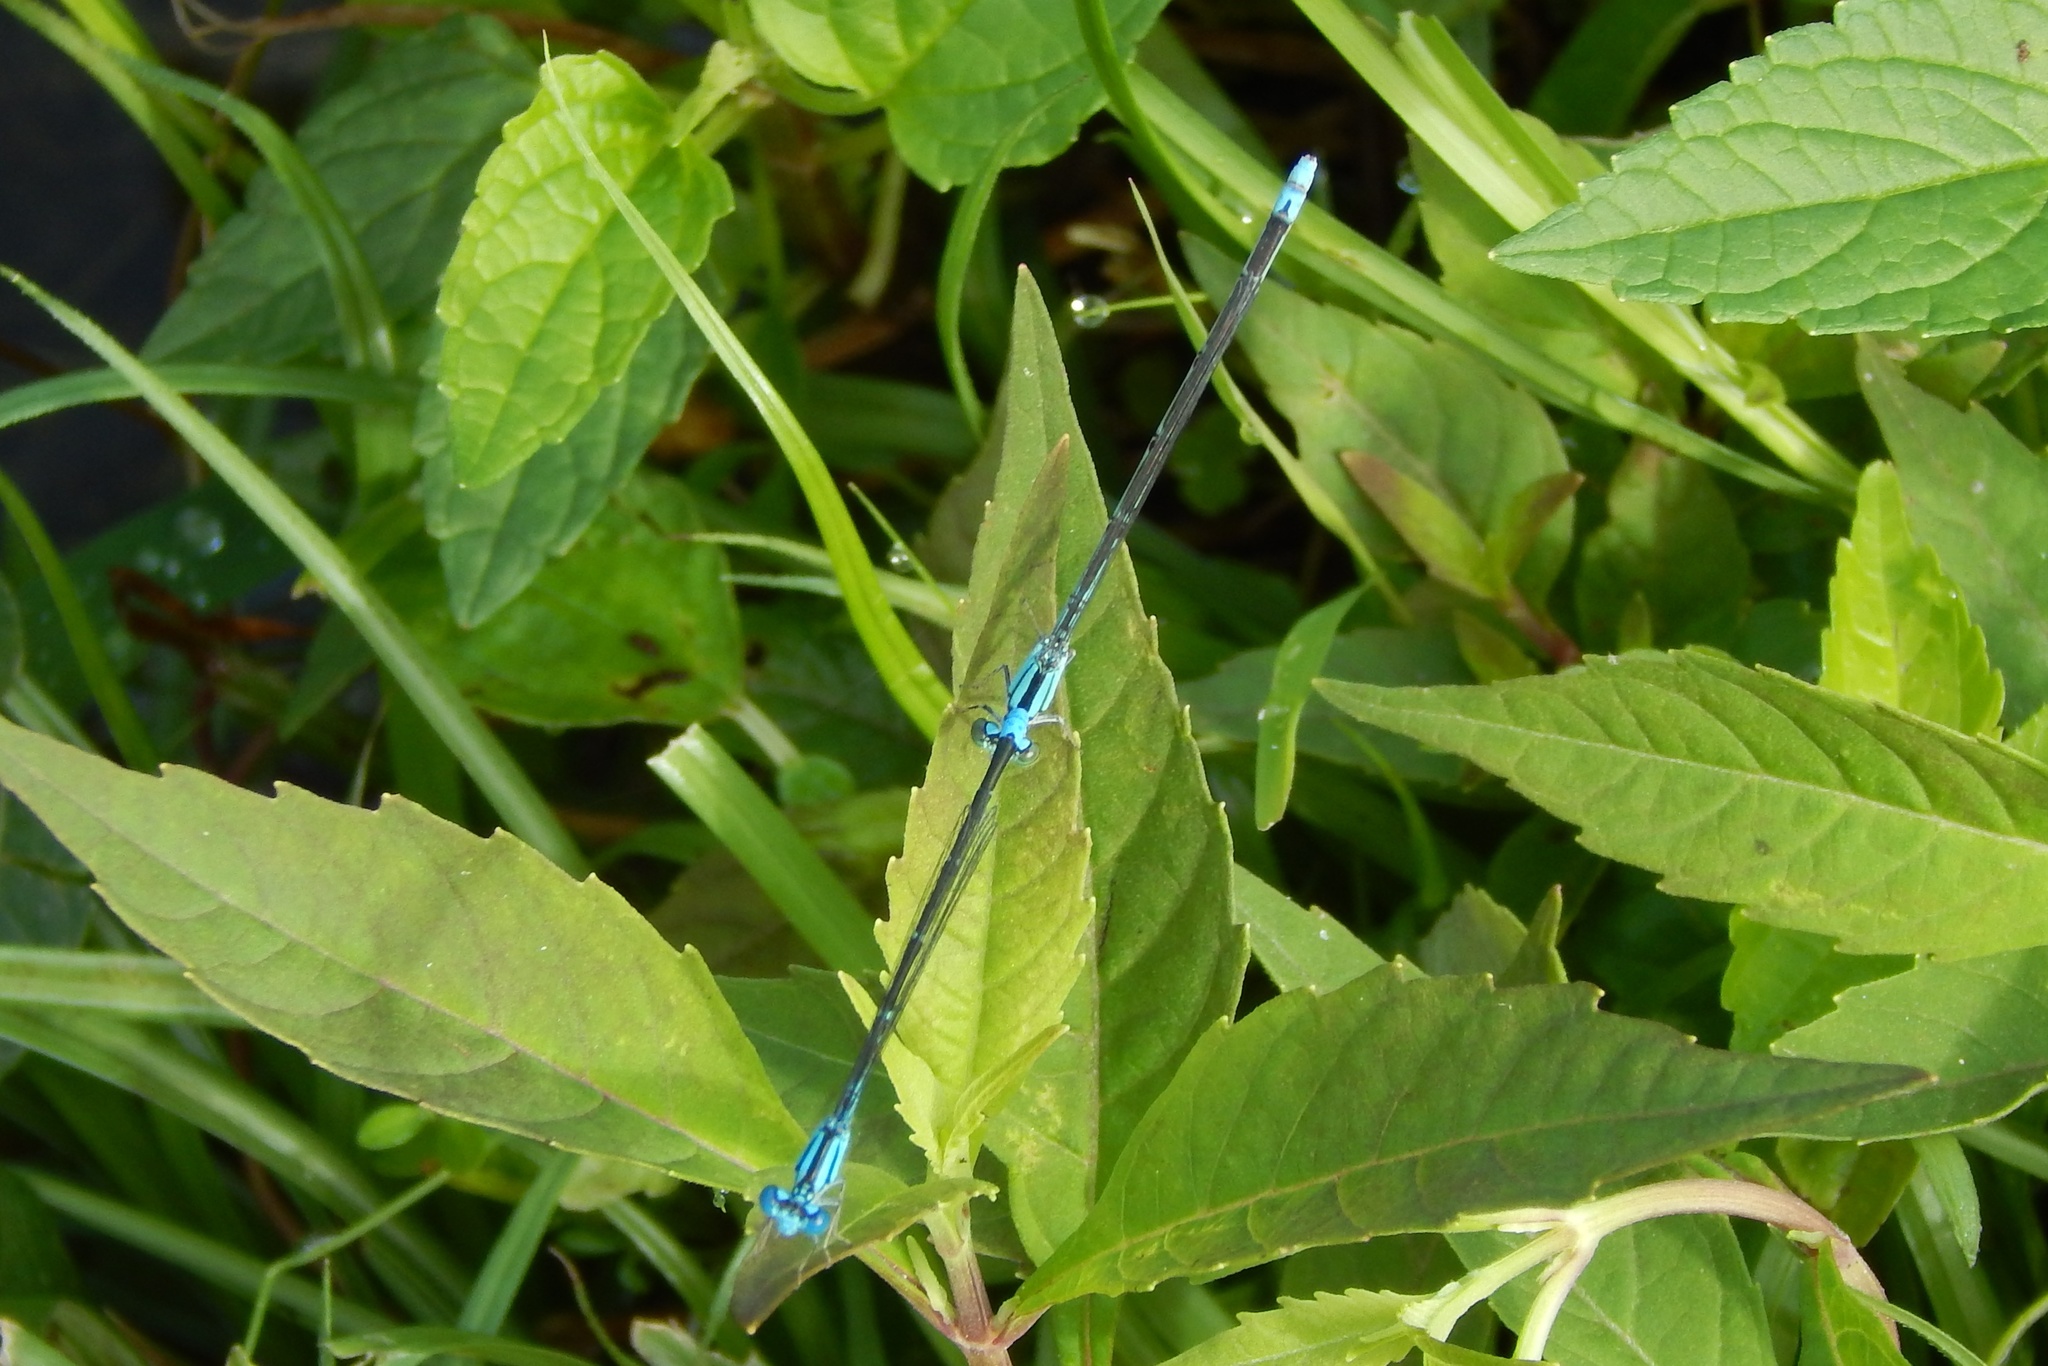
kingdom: Animalia
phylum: Arthropoda
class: Insecta
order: Odonata
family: Coenagrionidae
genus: Enallagma
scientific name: Enallagma traviatum
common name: Slender bluet
